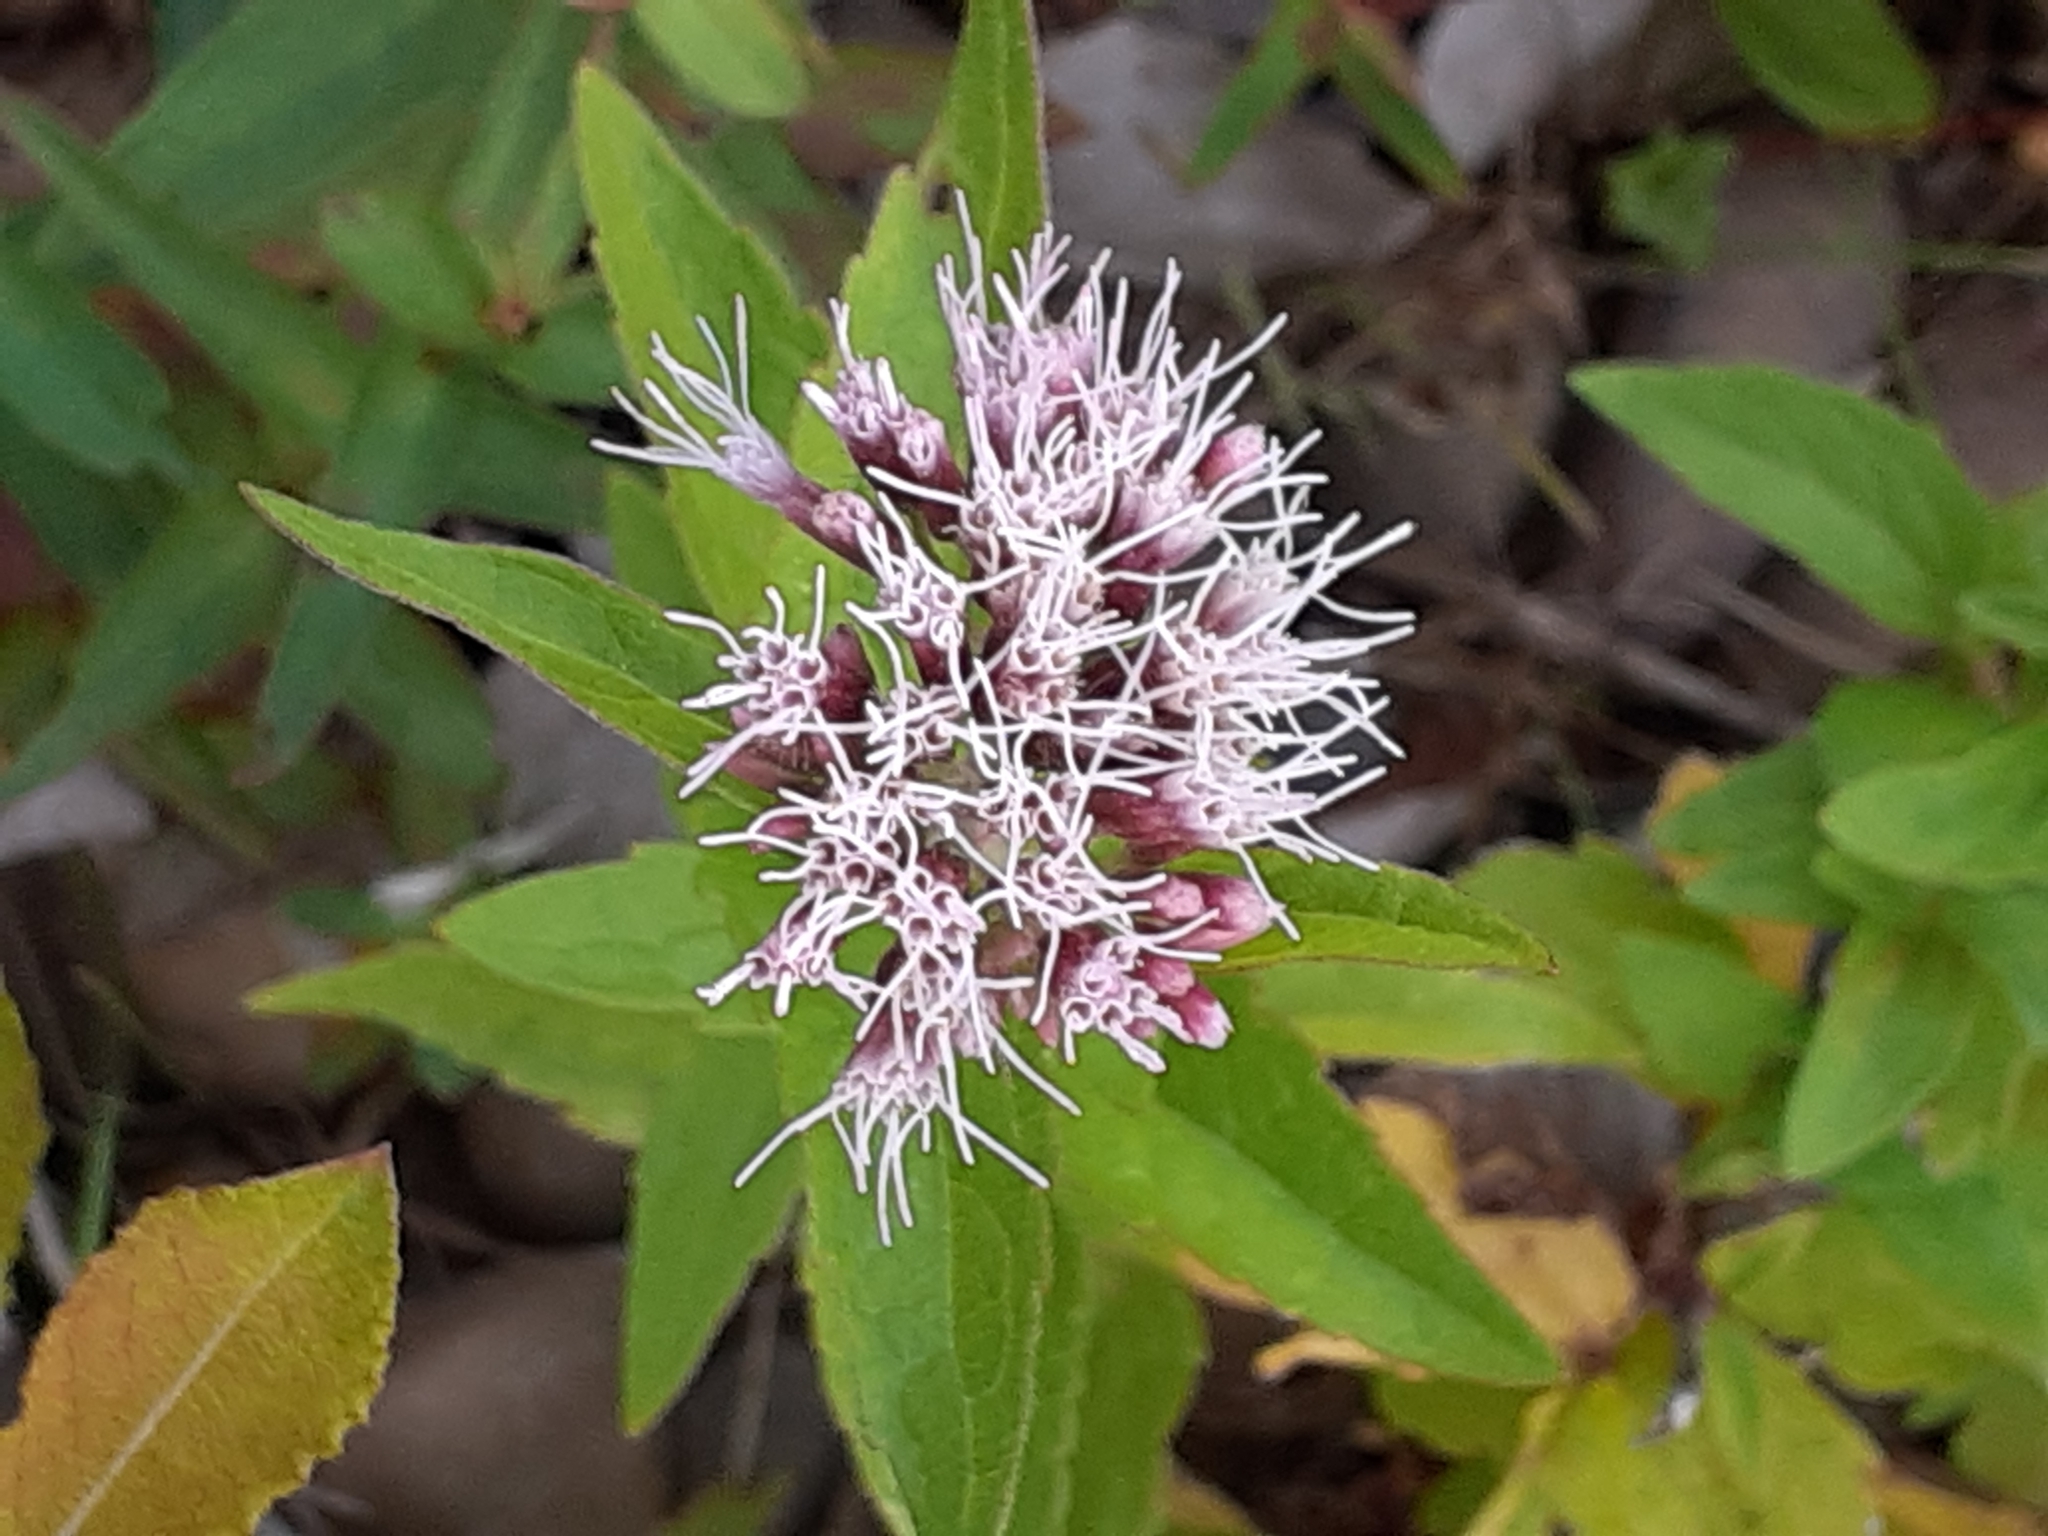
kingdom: Plantae
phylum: Tracheophyta
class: Magnoliopsida
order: Asterales
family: Asteraceae
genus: Eupatorium
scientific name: Eupatorium cannabinum
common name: Hemp-agrimony
